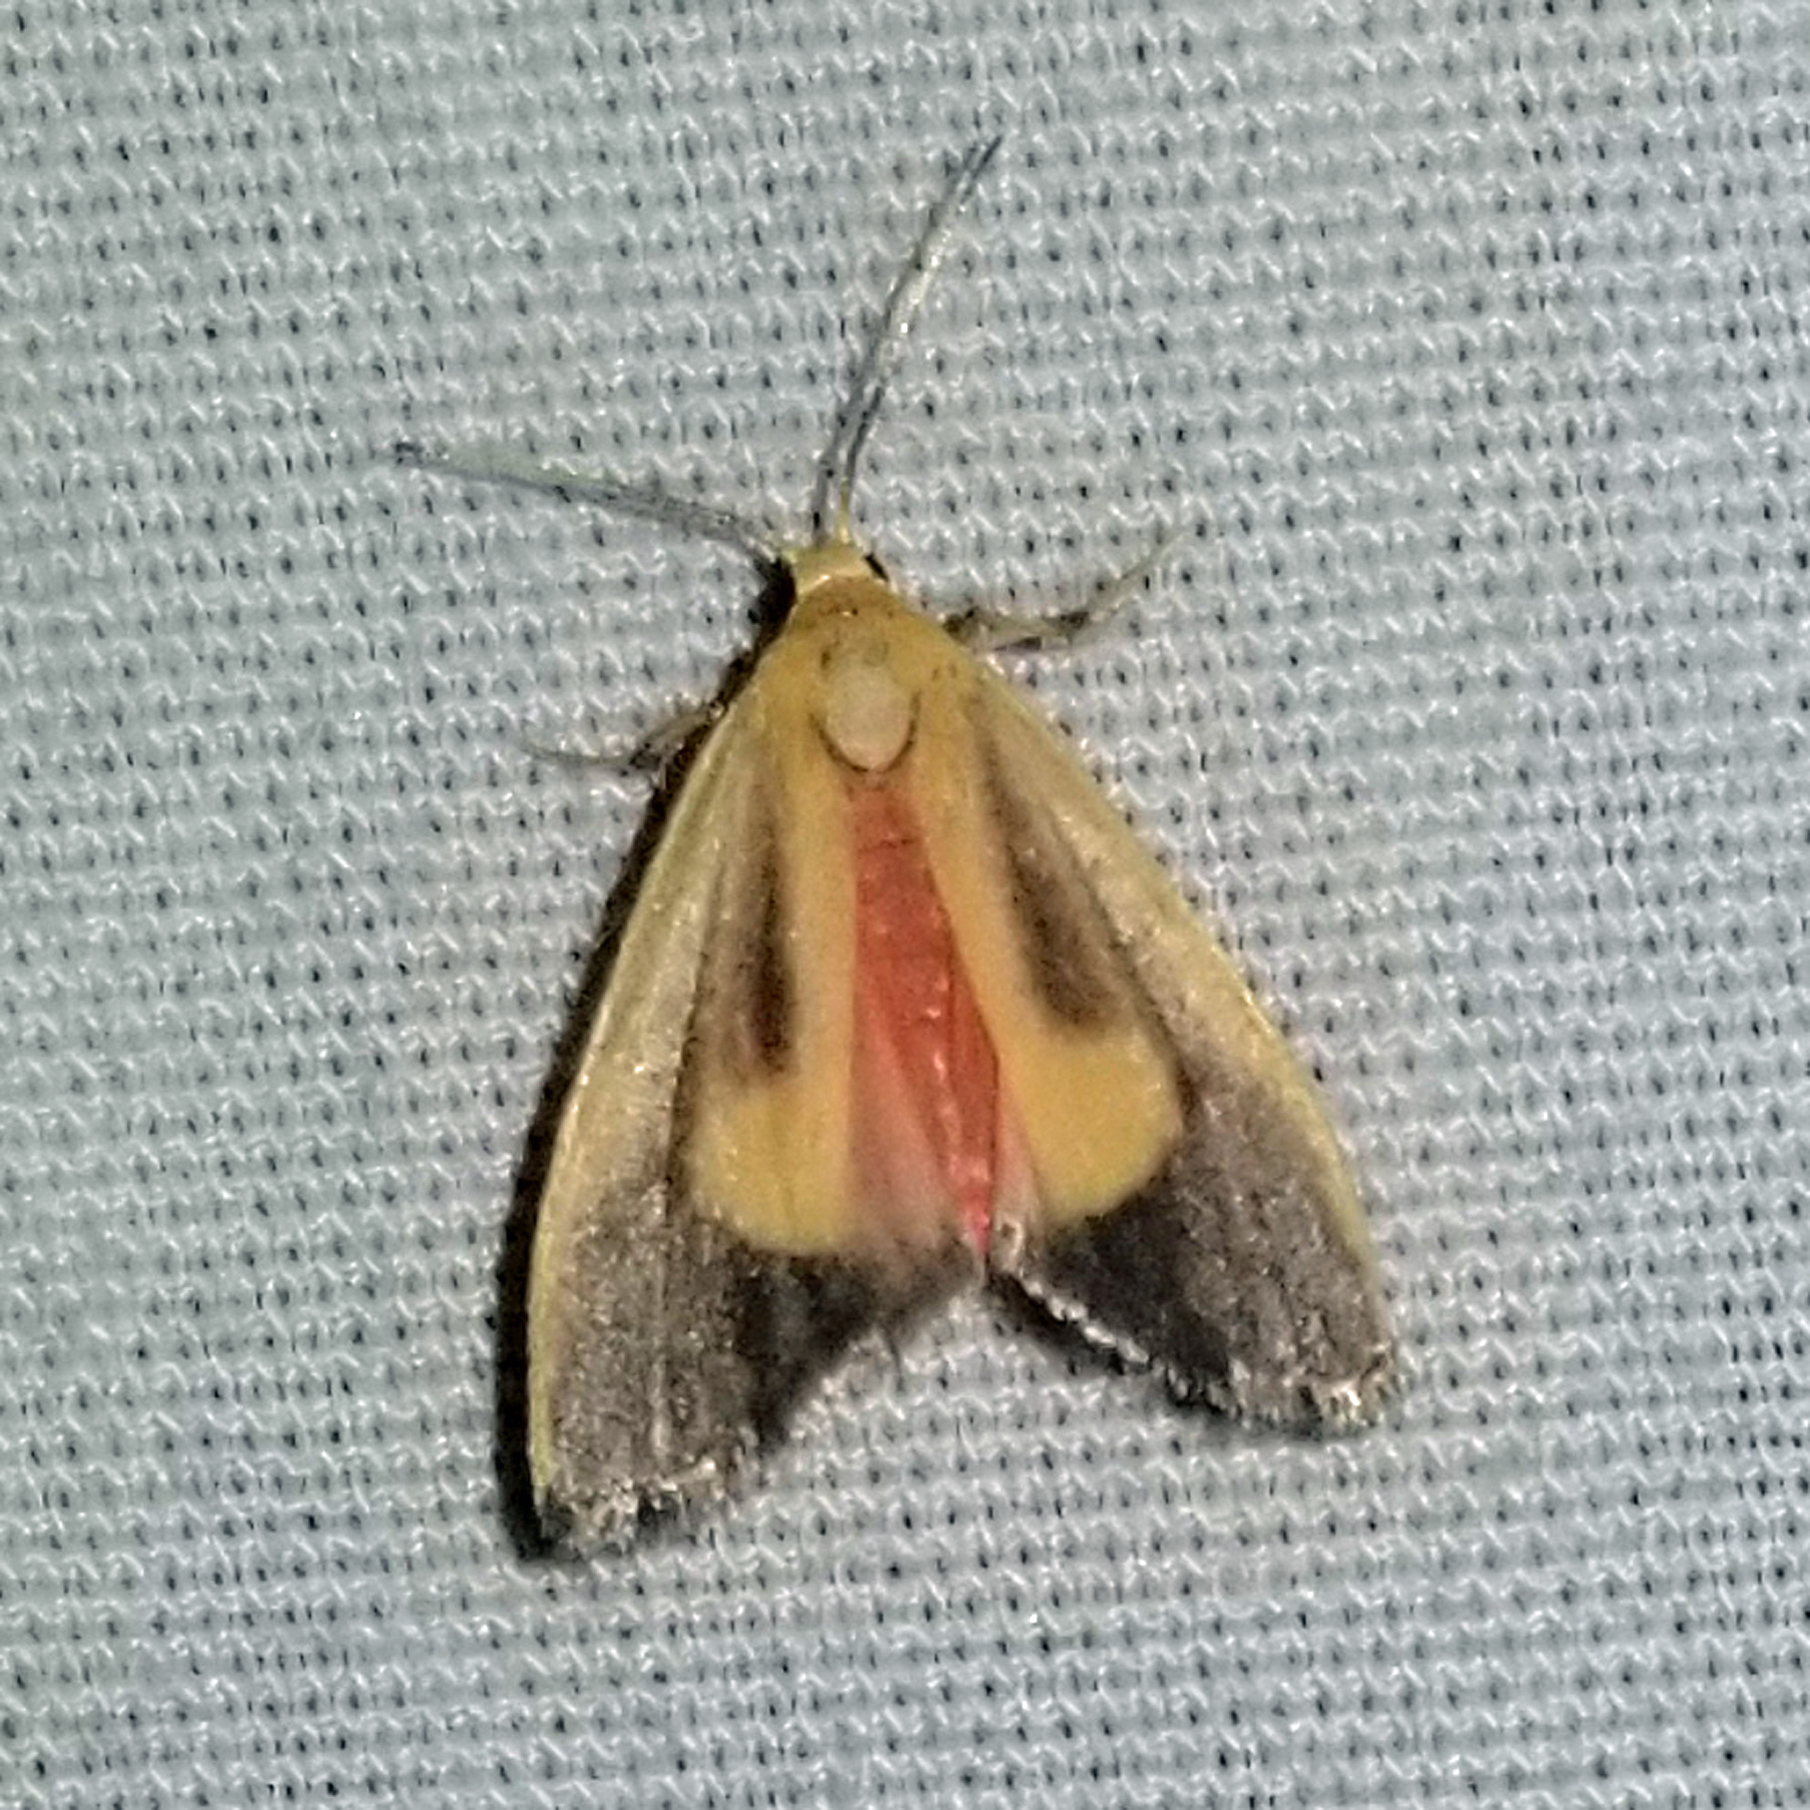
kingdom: Animalia
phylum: Arthropoda
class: Insecta
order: Lepidoptera
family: Erebidae
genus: Cisthene
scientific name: Cisthene plumbea
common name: Lead colored lichen moth
